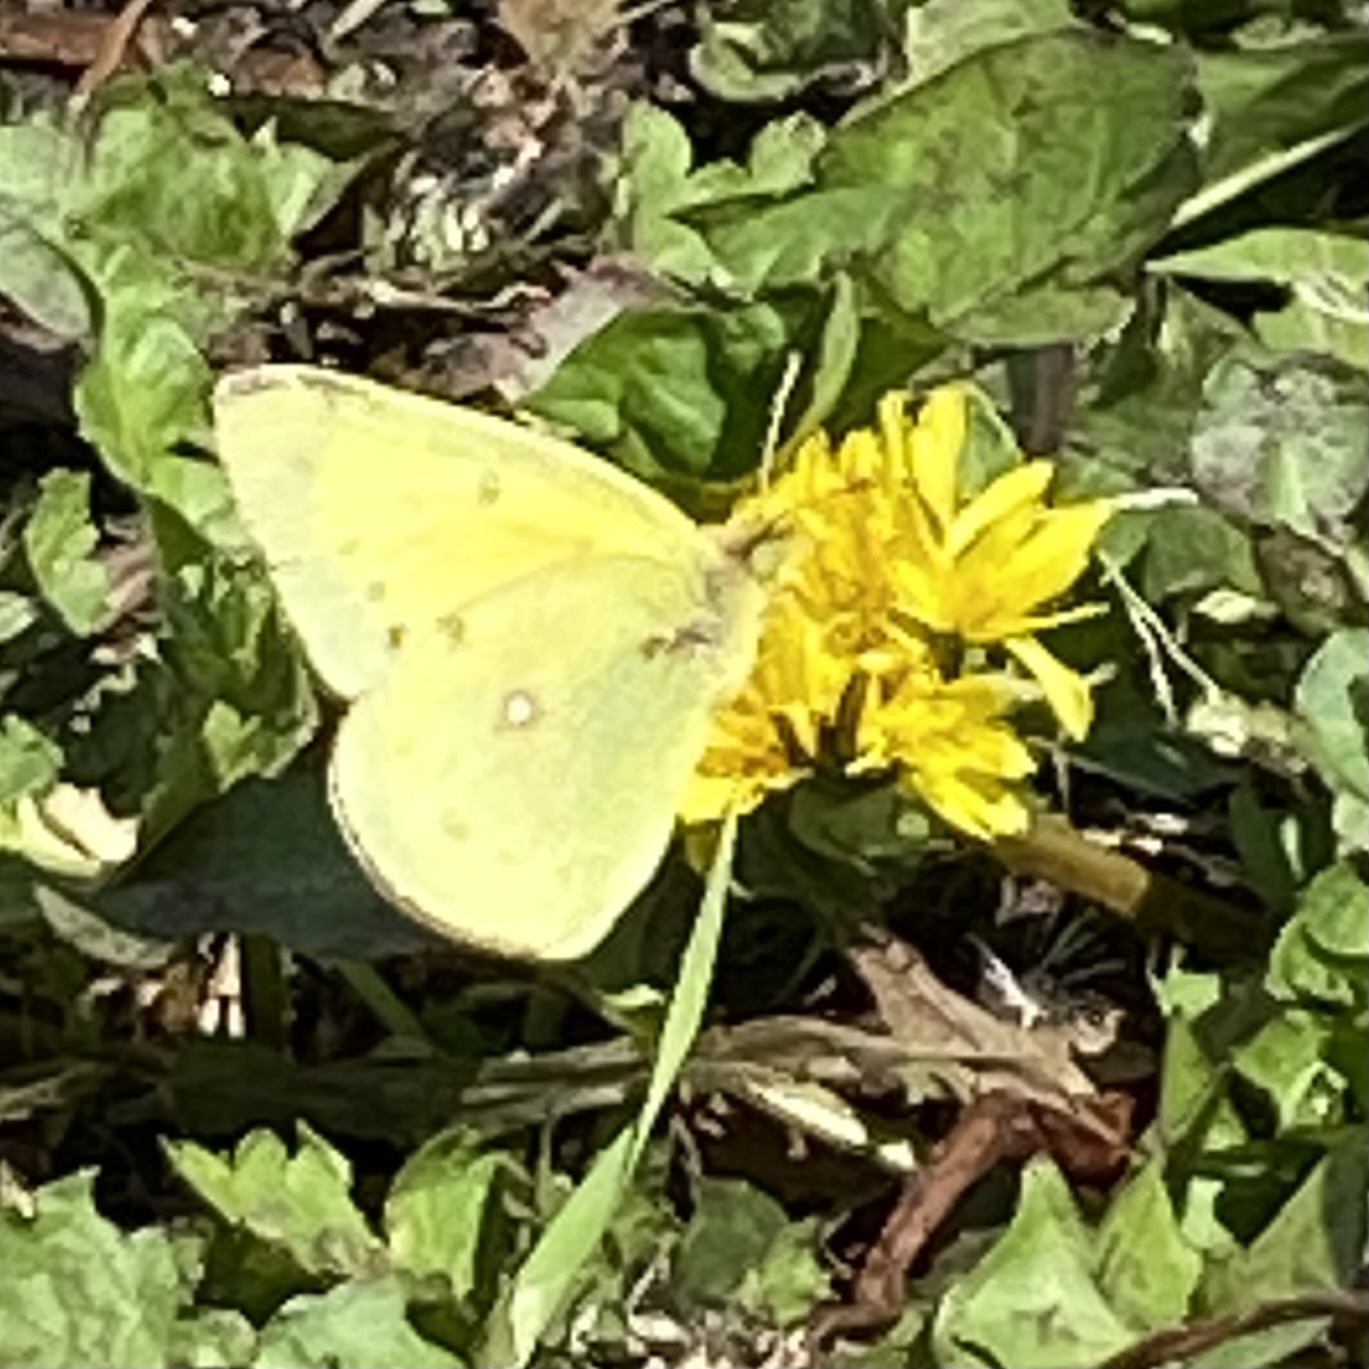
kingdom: Animalia
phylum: Arthropoda
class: Insecta
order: Lepidoptera
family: Pieridae
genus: Colias
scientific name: Colias eurytheme
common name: Alfalfa butterfly
